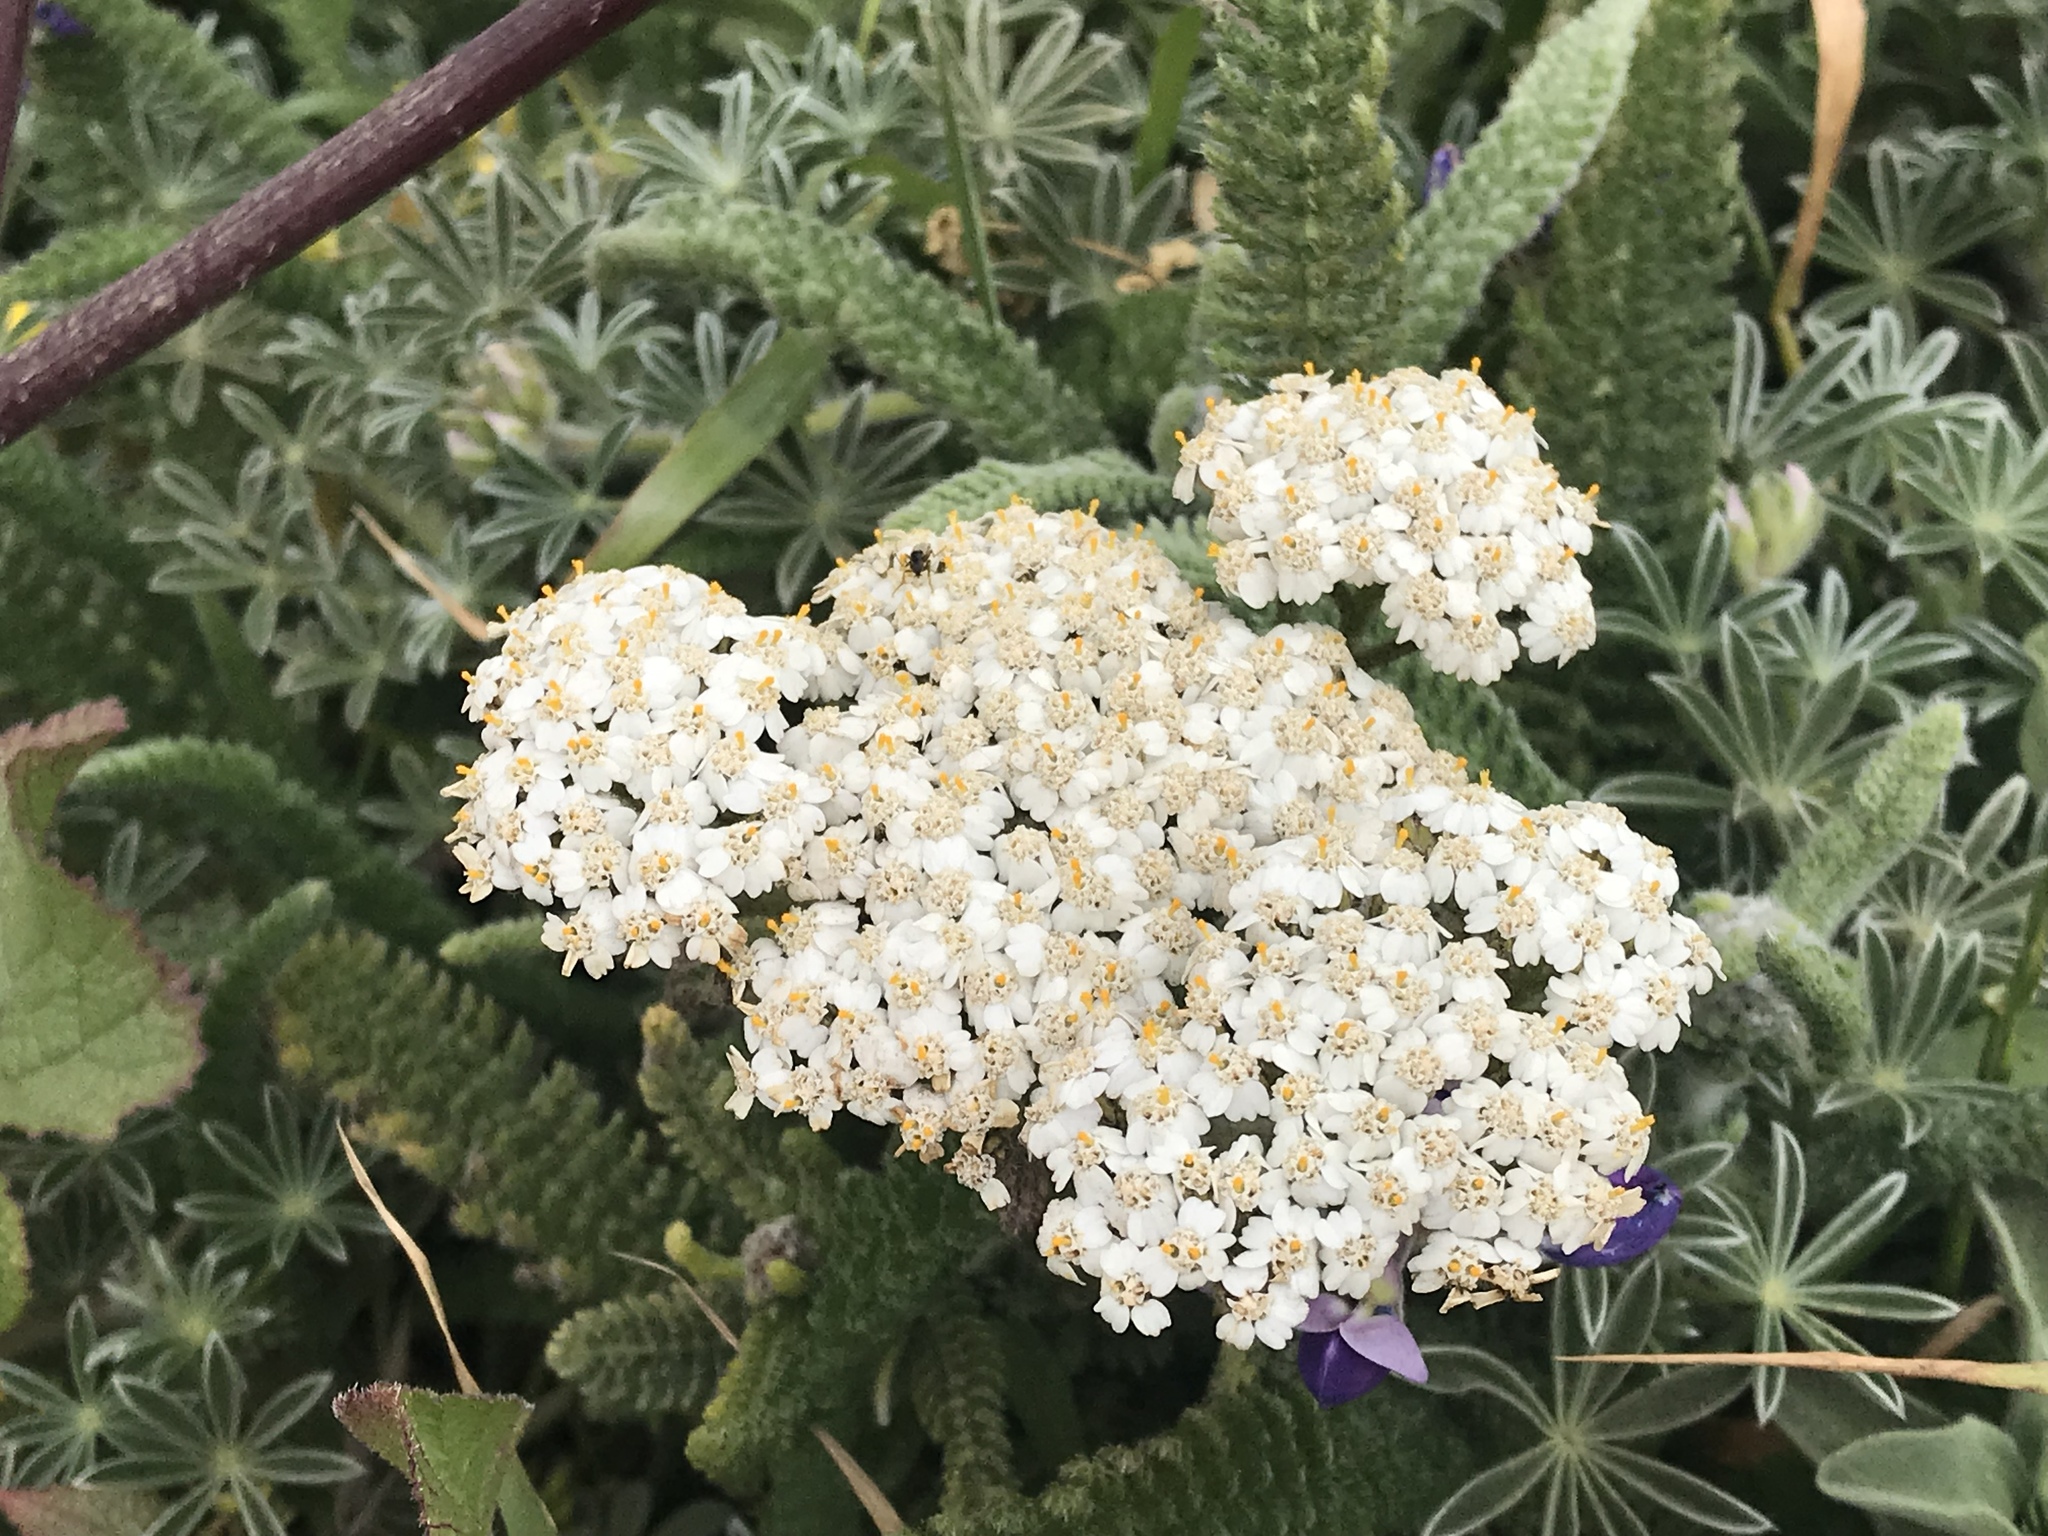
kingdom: Plantae
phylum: Tracheophyta
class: Magnoliopsida
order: Asterales
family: Asteraceae
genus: Achillea
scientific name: Achillea millefolium
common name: Yarrow
